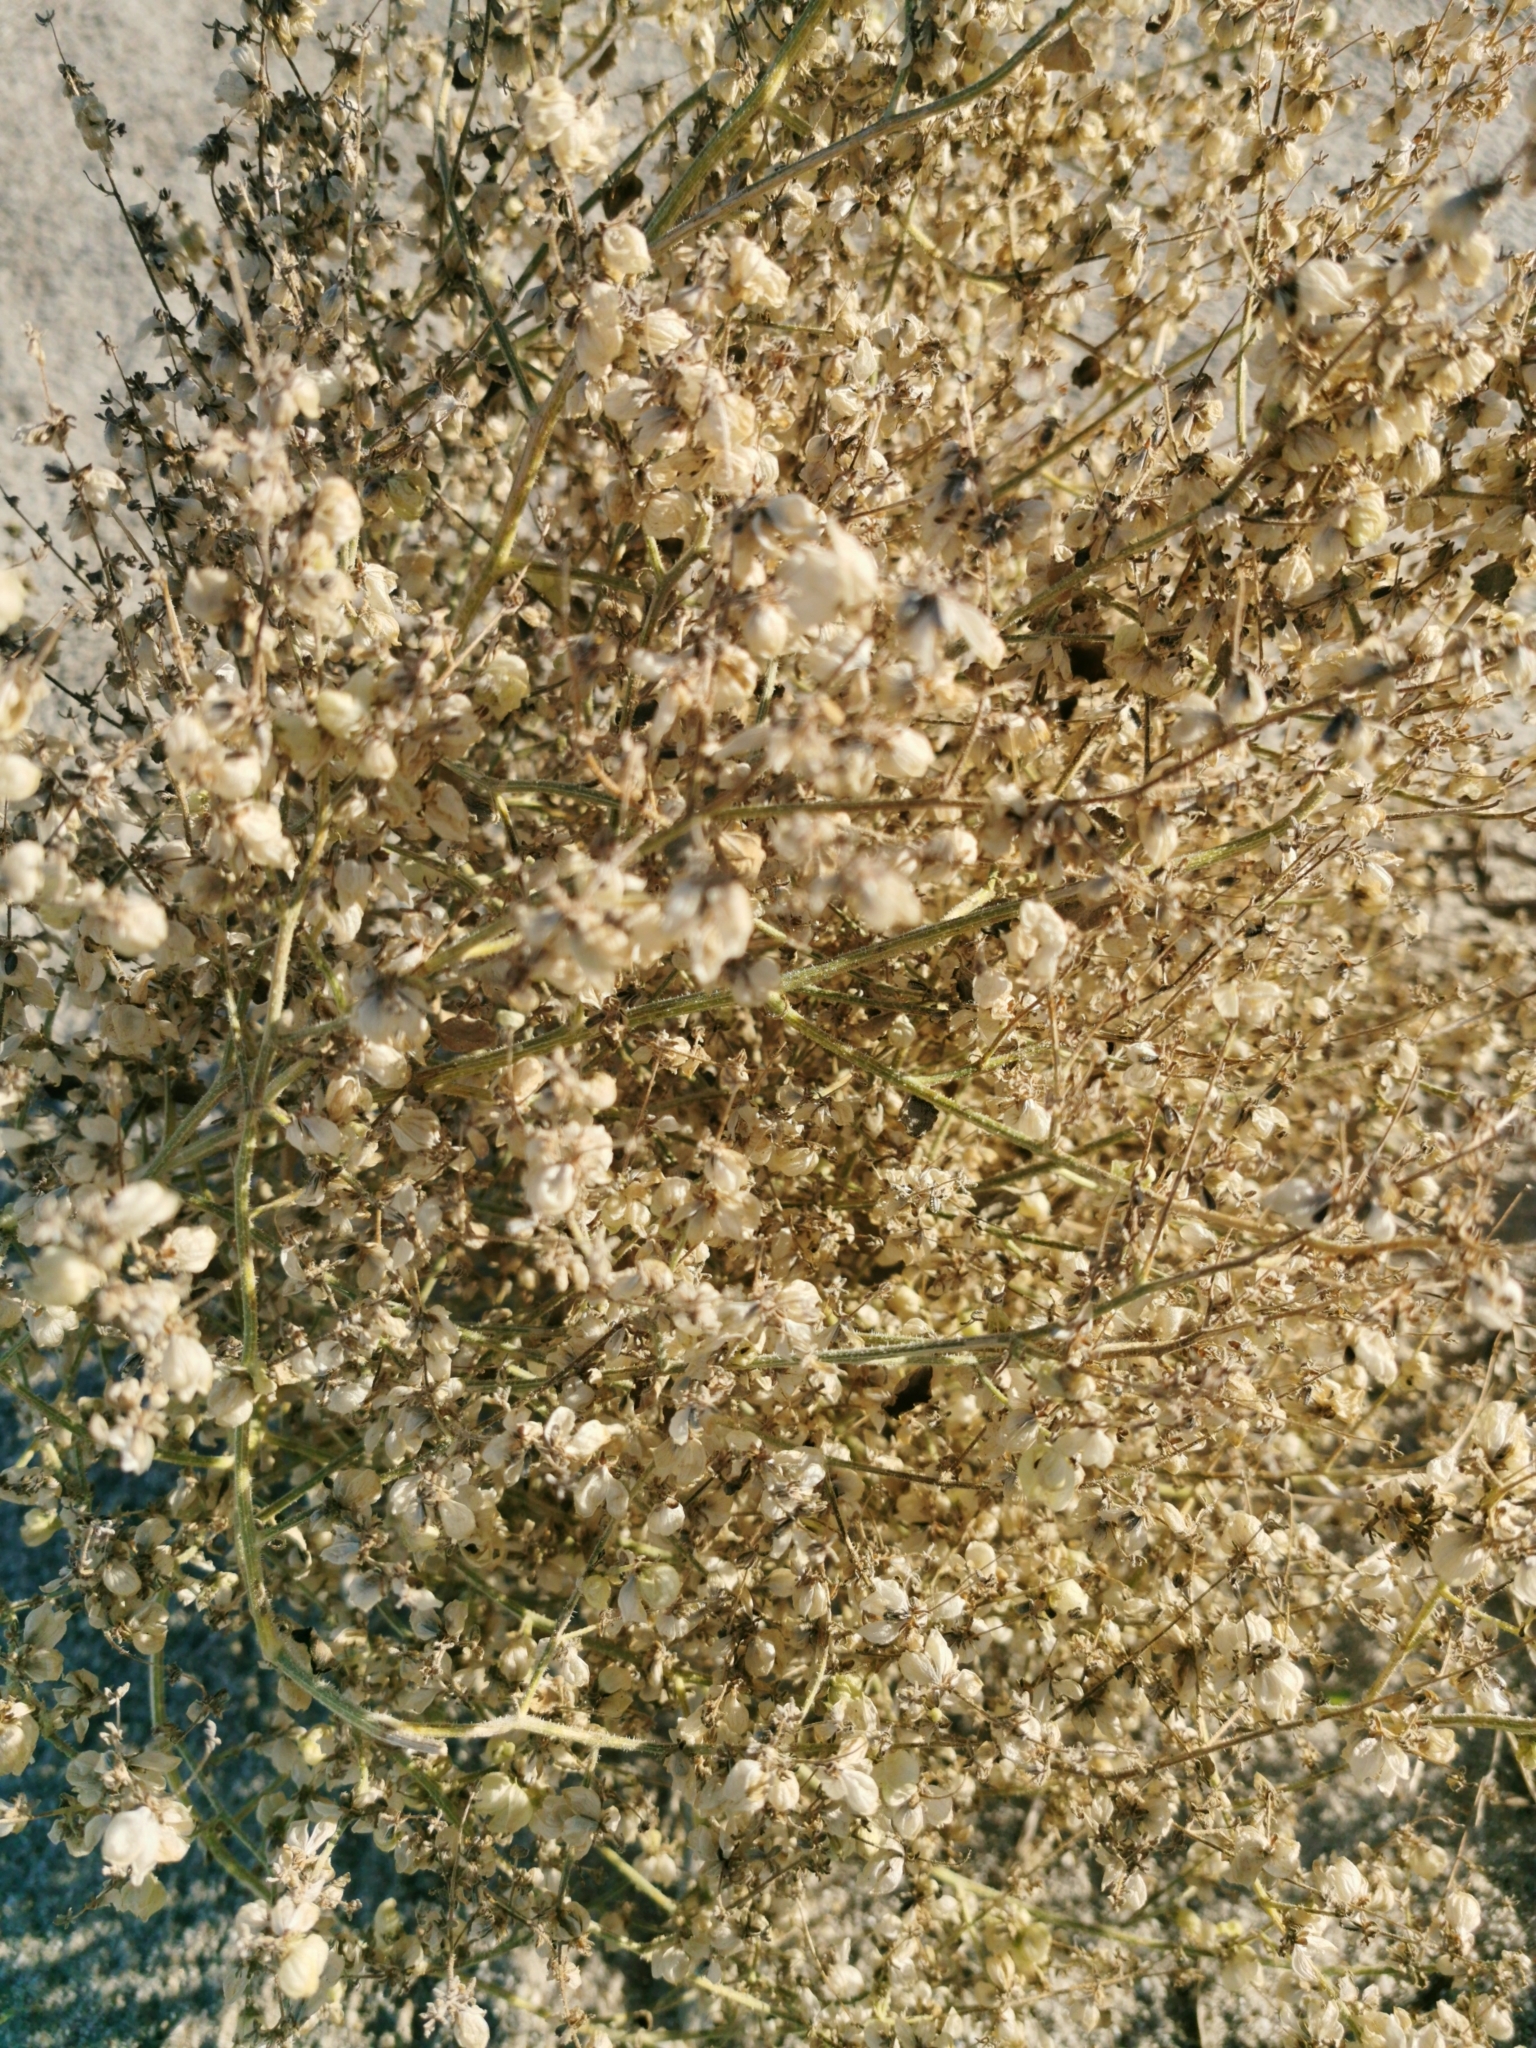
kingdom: Plantae
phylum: Tracheophyta
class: Magnoliopsida
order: Asterales
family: Asteraceae
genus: Dicoria
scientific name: Dicoria canescens
